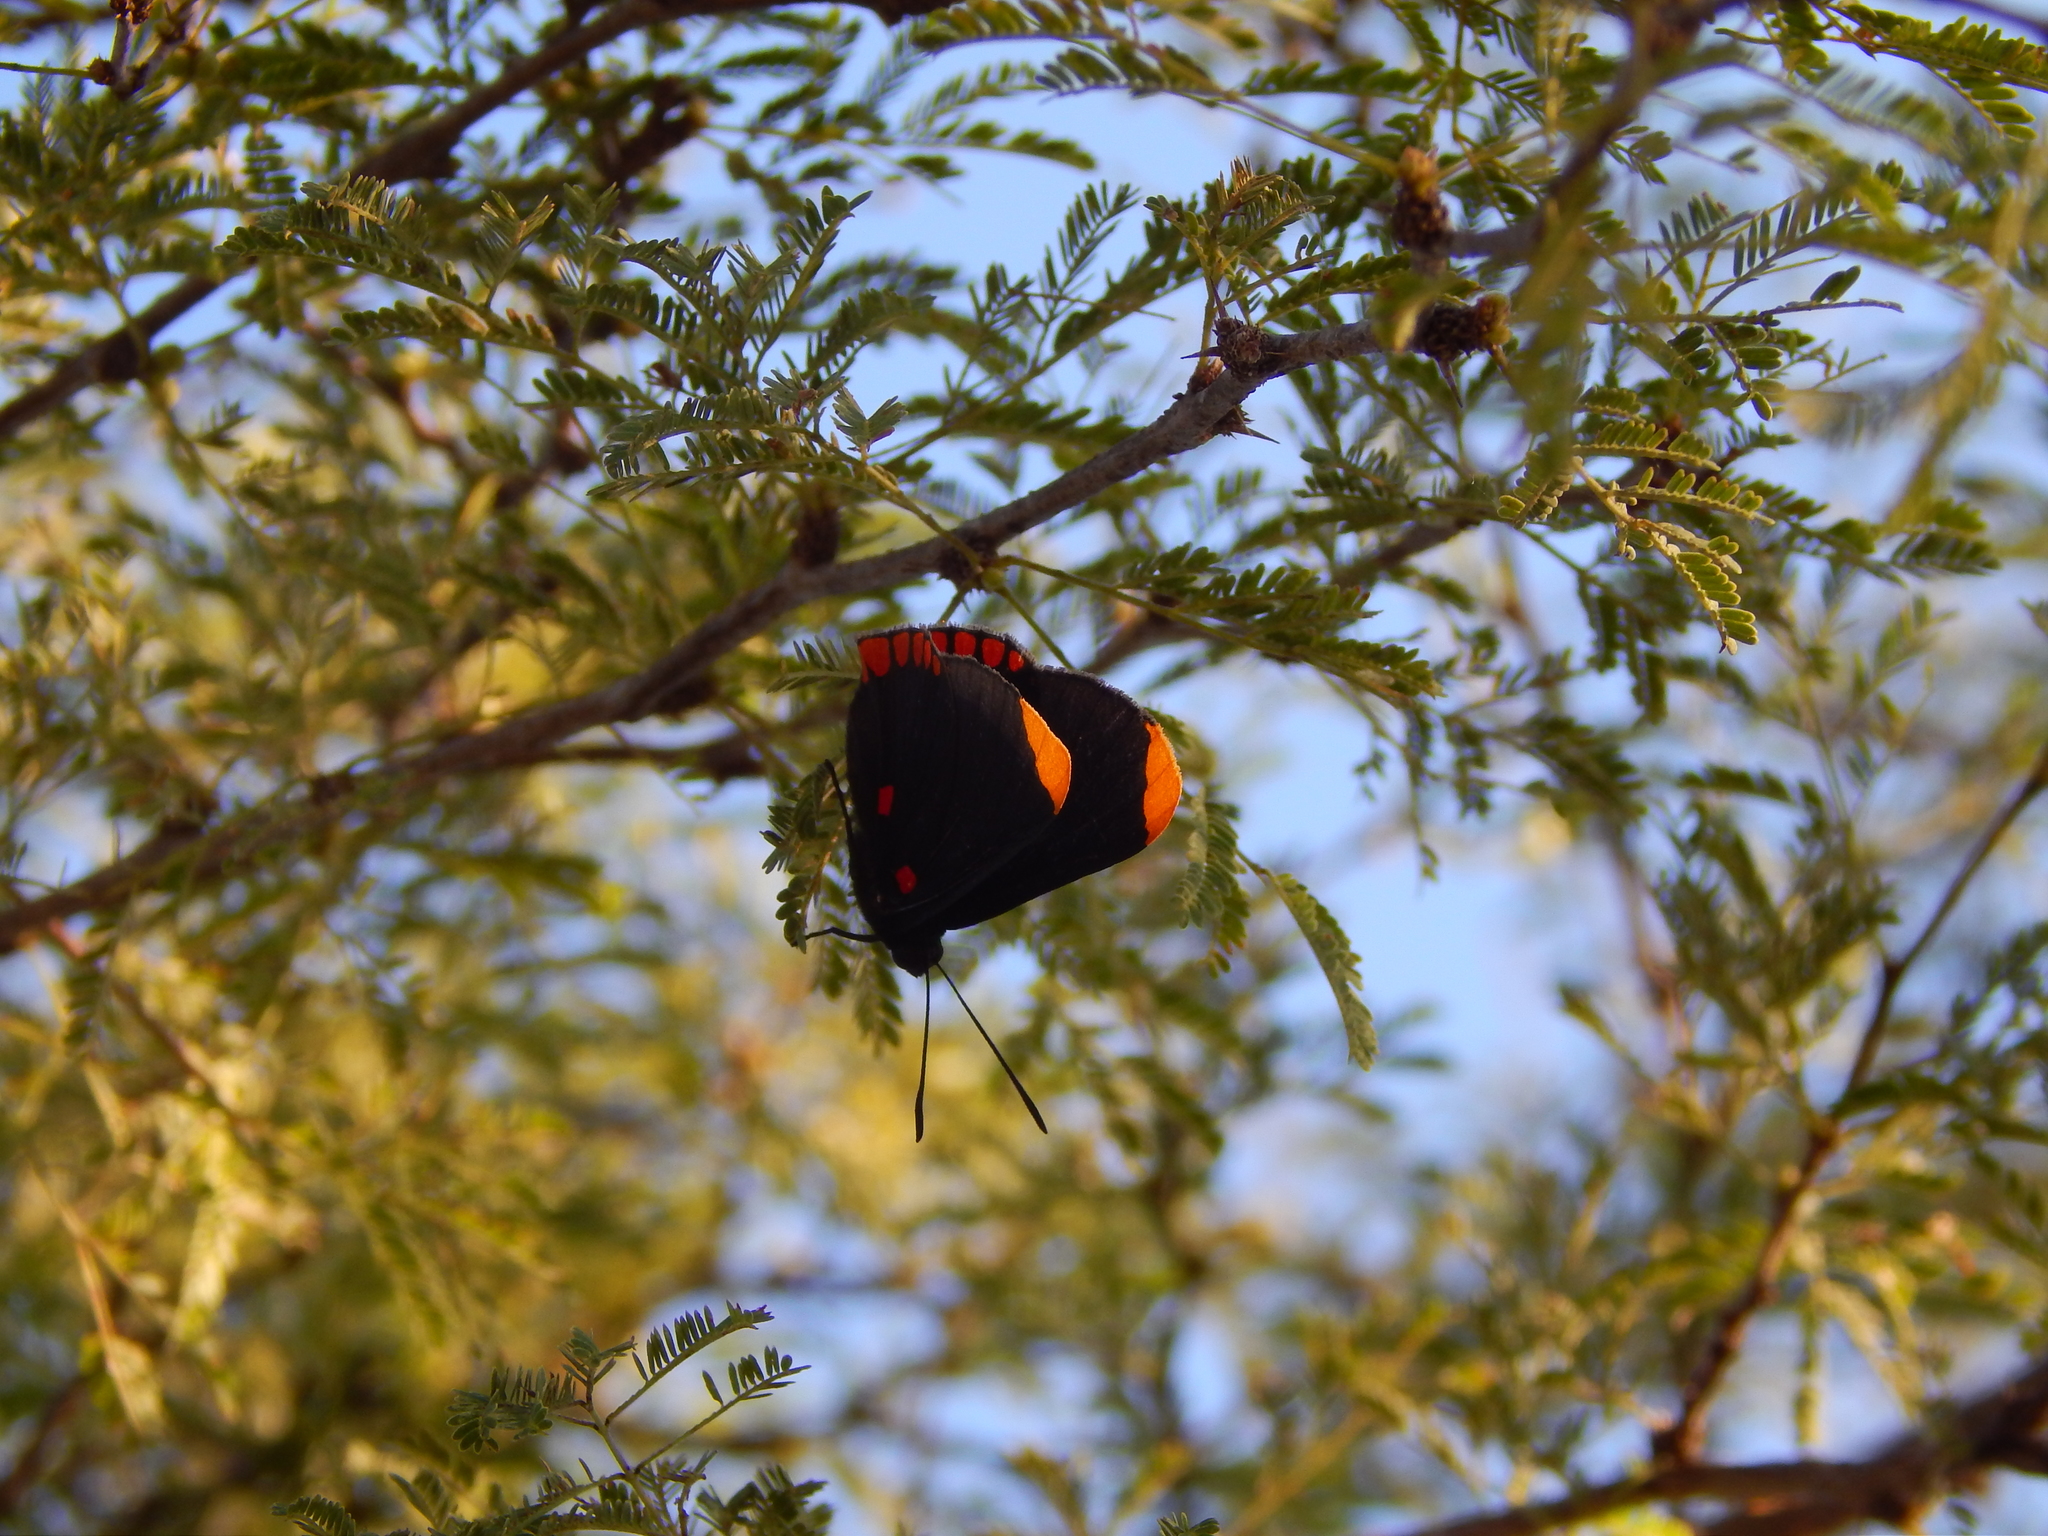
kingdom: Animalia
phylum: Arthropoda
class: Insecta
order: Lepidoptera
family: Lycaenidae
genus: Melanis
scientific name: Melanis pixe
